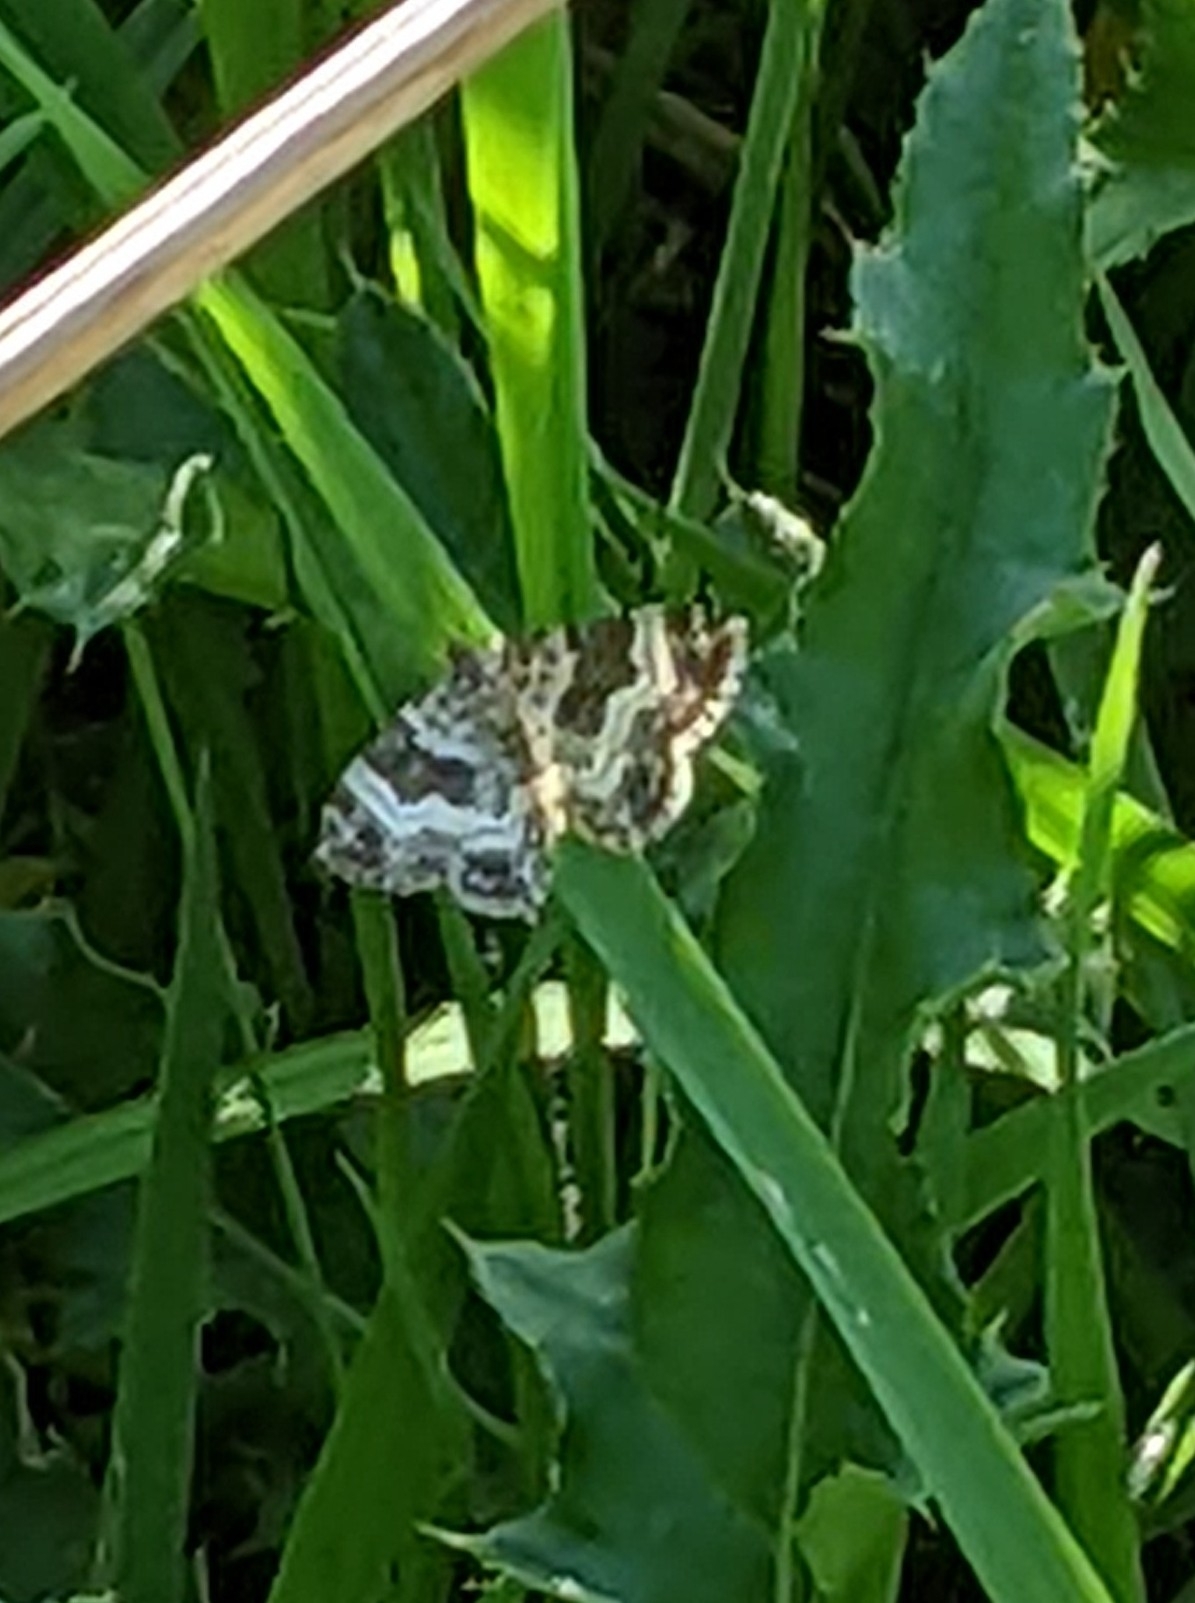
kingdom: Animalia
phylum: Arthropoda
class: Insecta
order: Lepidoptera
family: Geometridae
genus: Epirrhoe
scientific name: Epirrhoe alternata
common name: Common carpet
